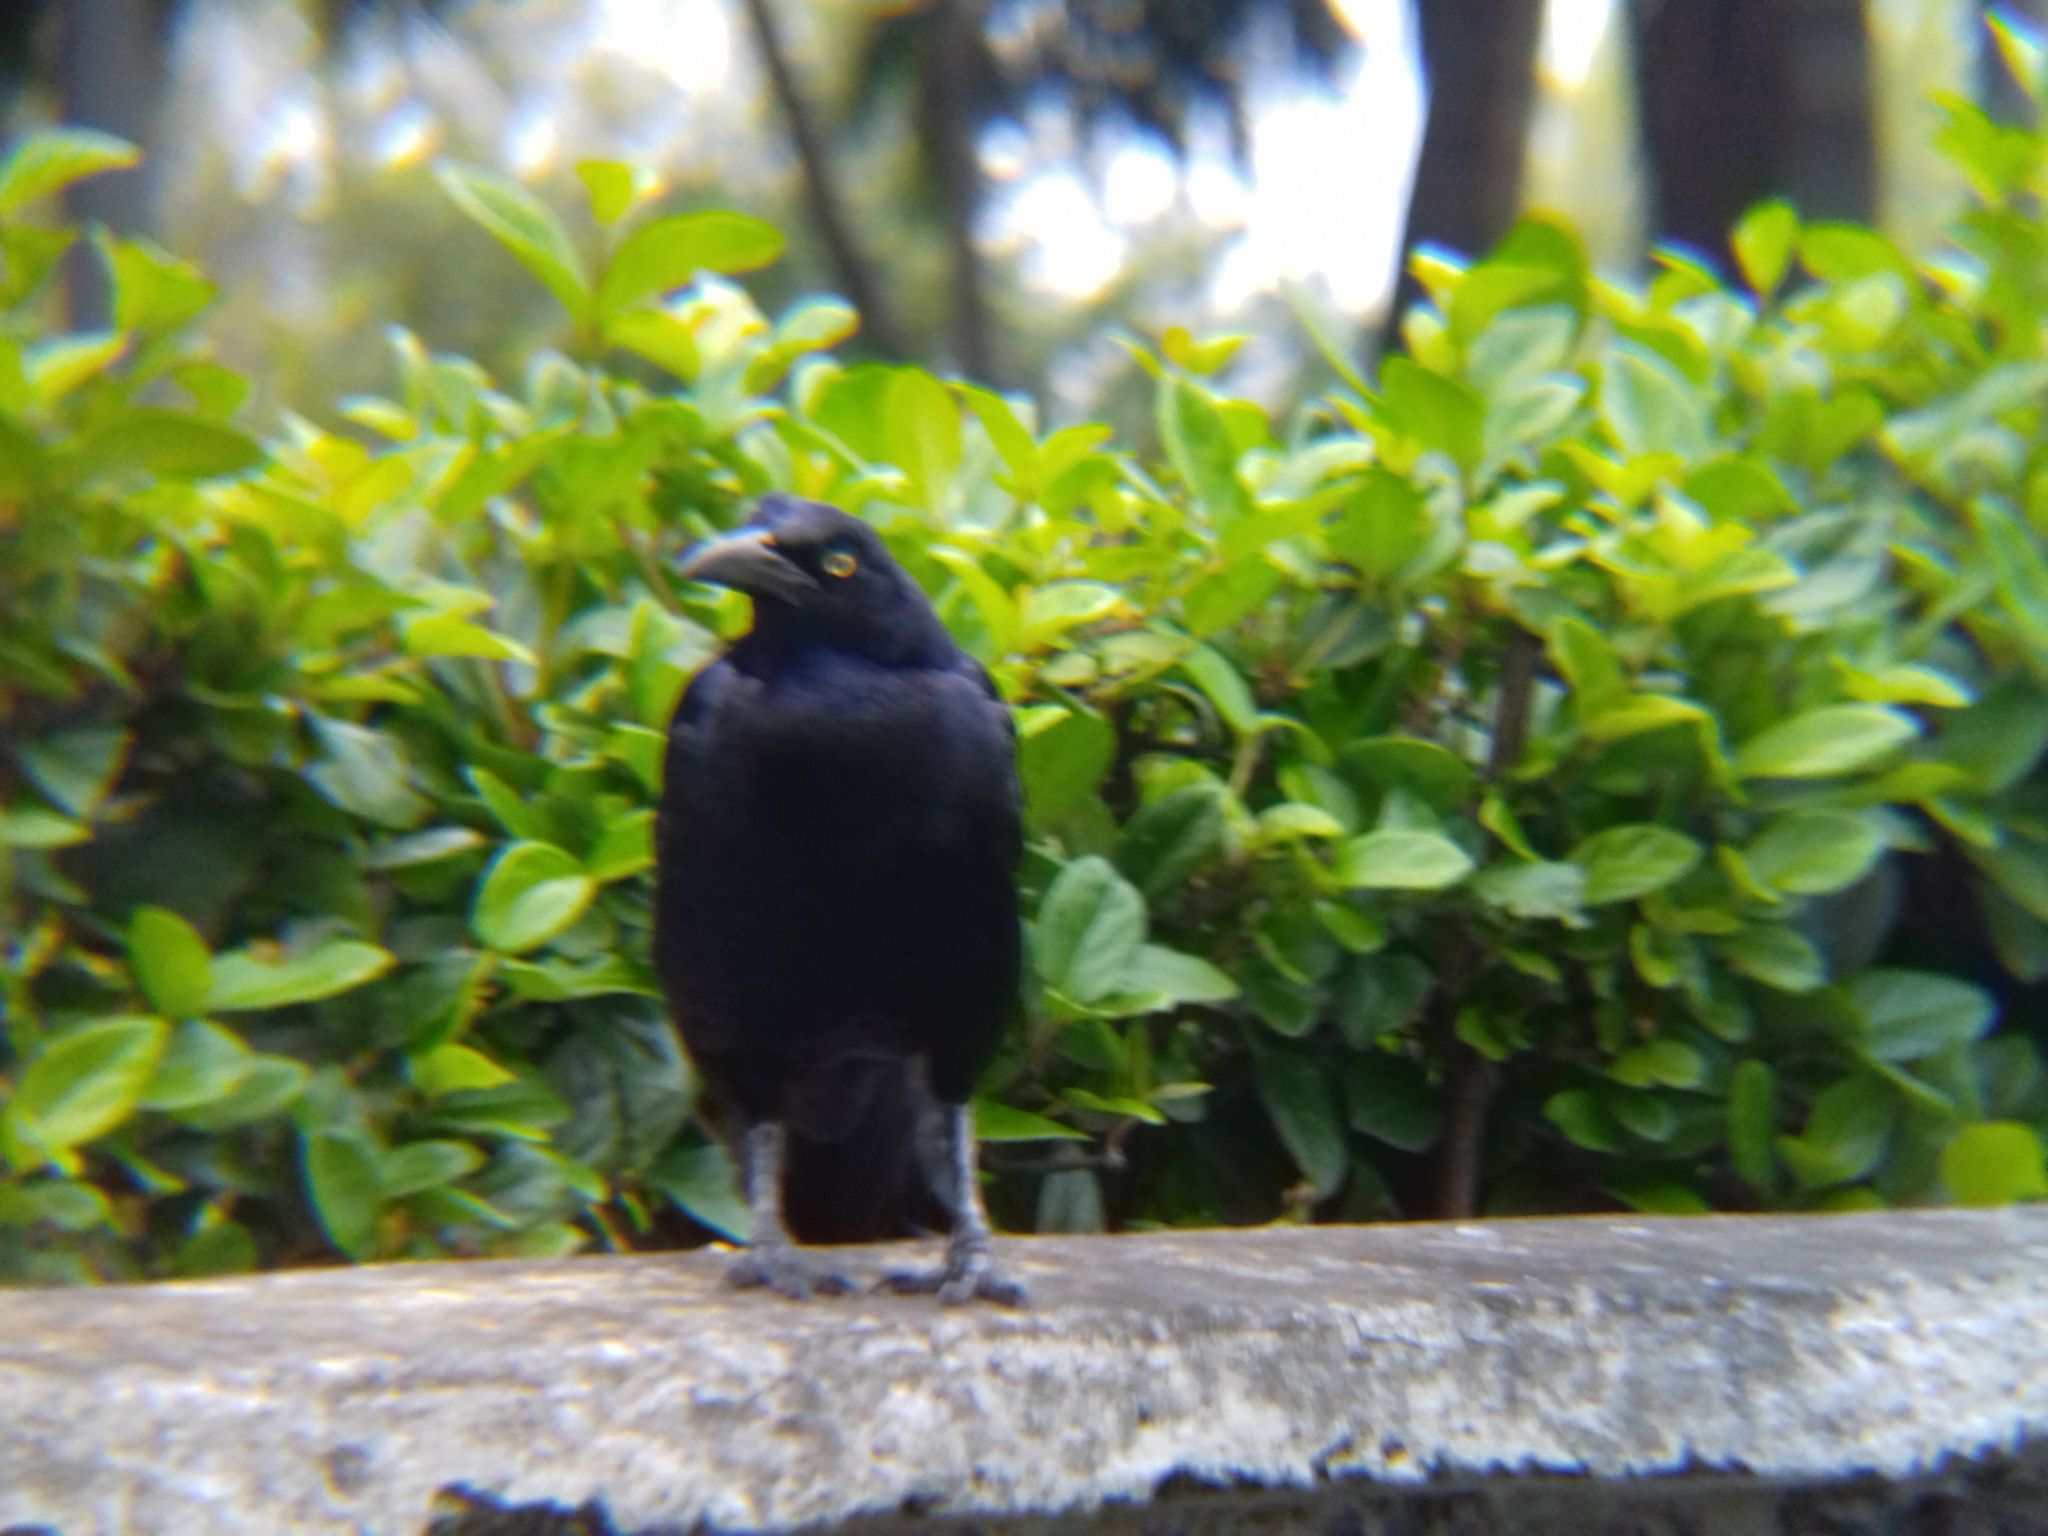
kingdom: Animalia
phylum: Chordata
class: Aves
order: Passeriformes
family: Icteridae
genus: Quiscalus
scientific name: Quiscalus mexicanus
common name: Great-tailed grackle
